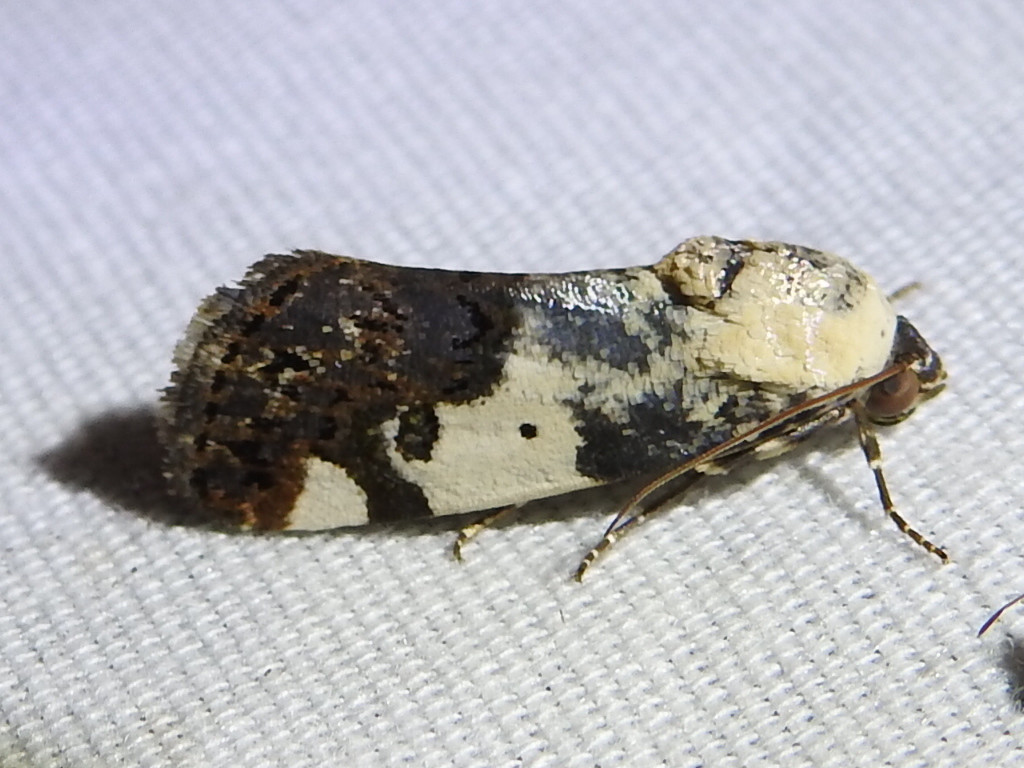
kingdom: Animalia
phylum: Arthropoda
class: Insecta
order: Lepidoptera
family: Noctuidae
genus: Acontia
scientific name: Acontia aprica
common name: Nun
